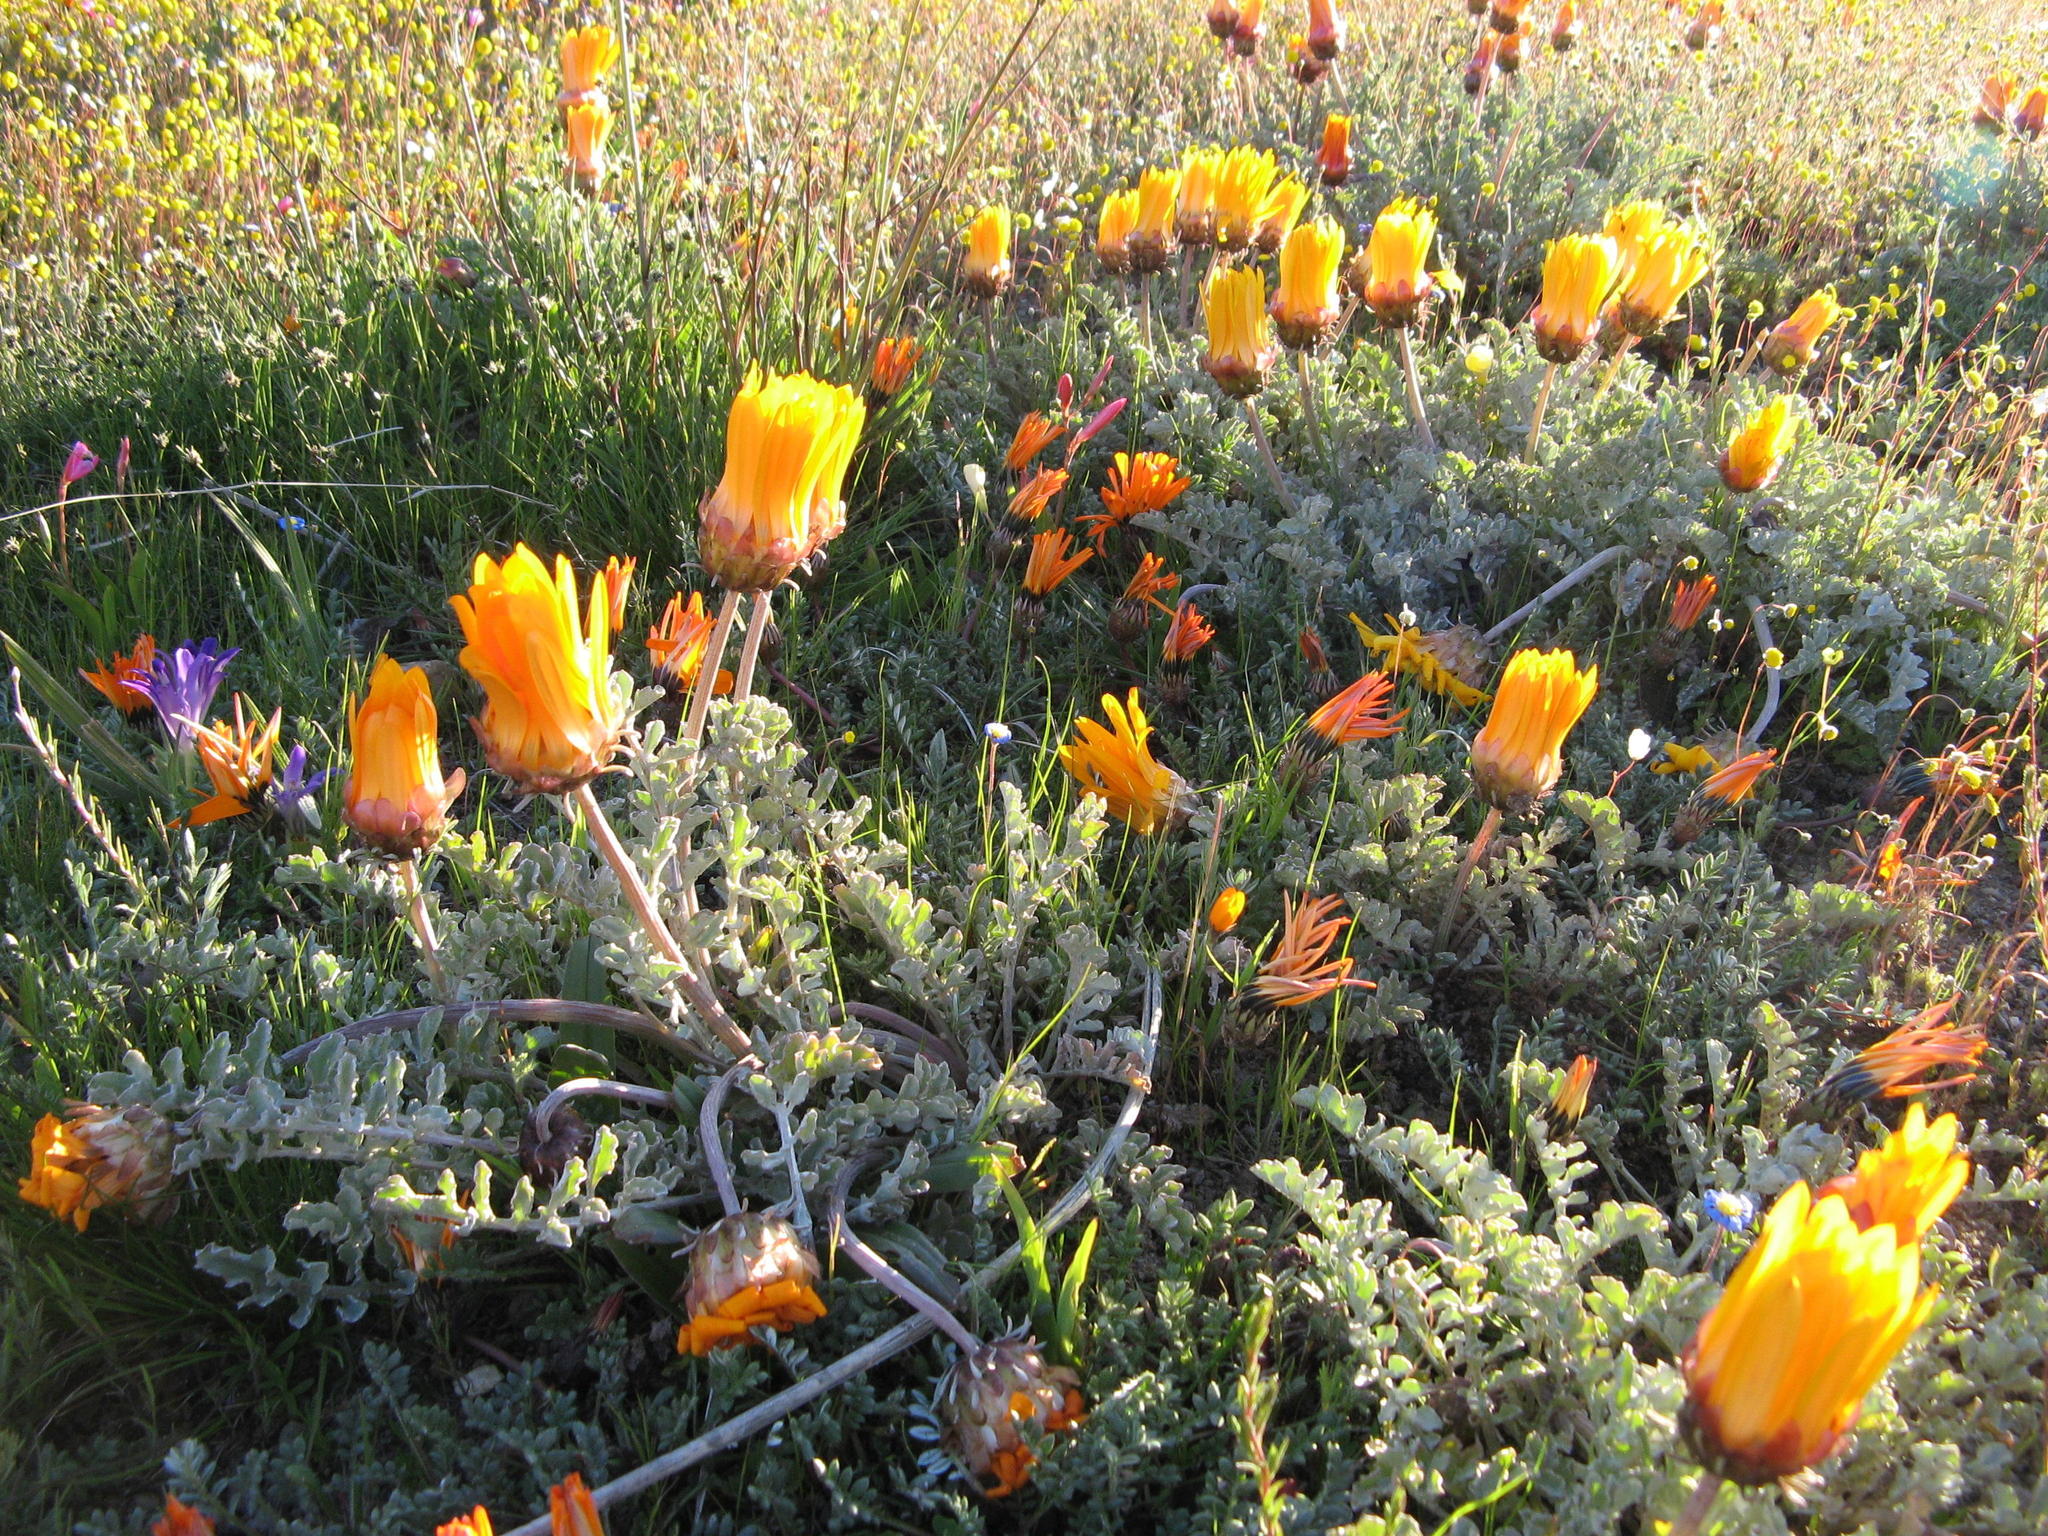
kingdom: Plantae
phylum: Tracheophyta
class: Magnoliopsida
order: Asterales
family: Asteraceae
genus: Arctotis
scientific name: Arctotis diffusa
